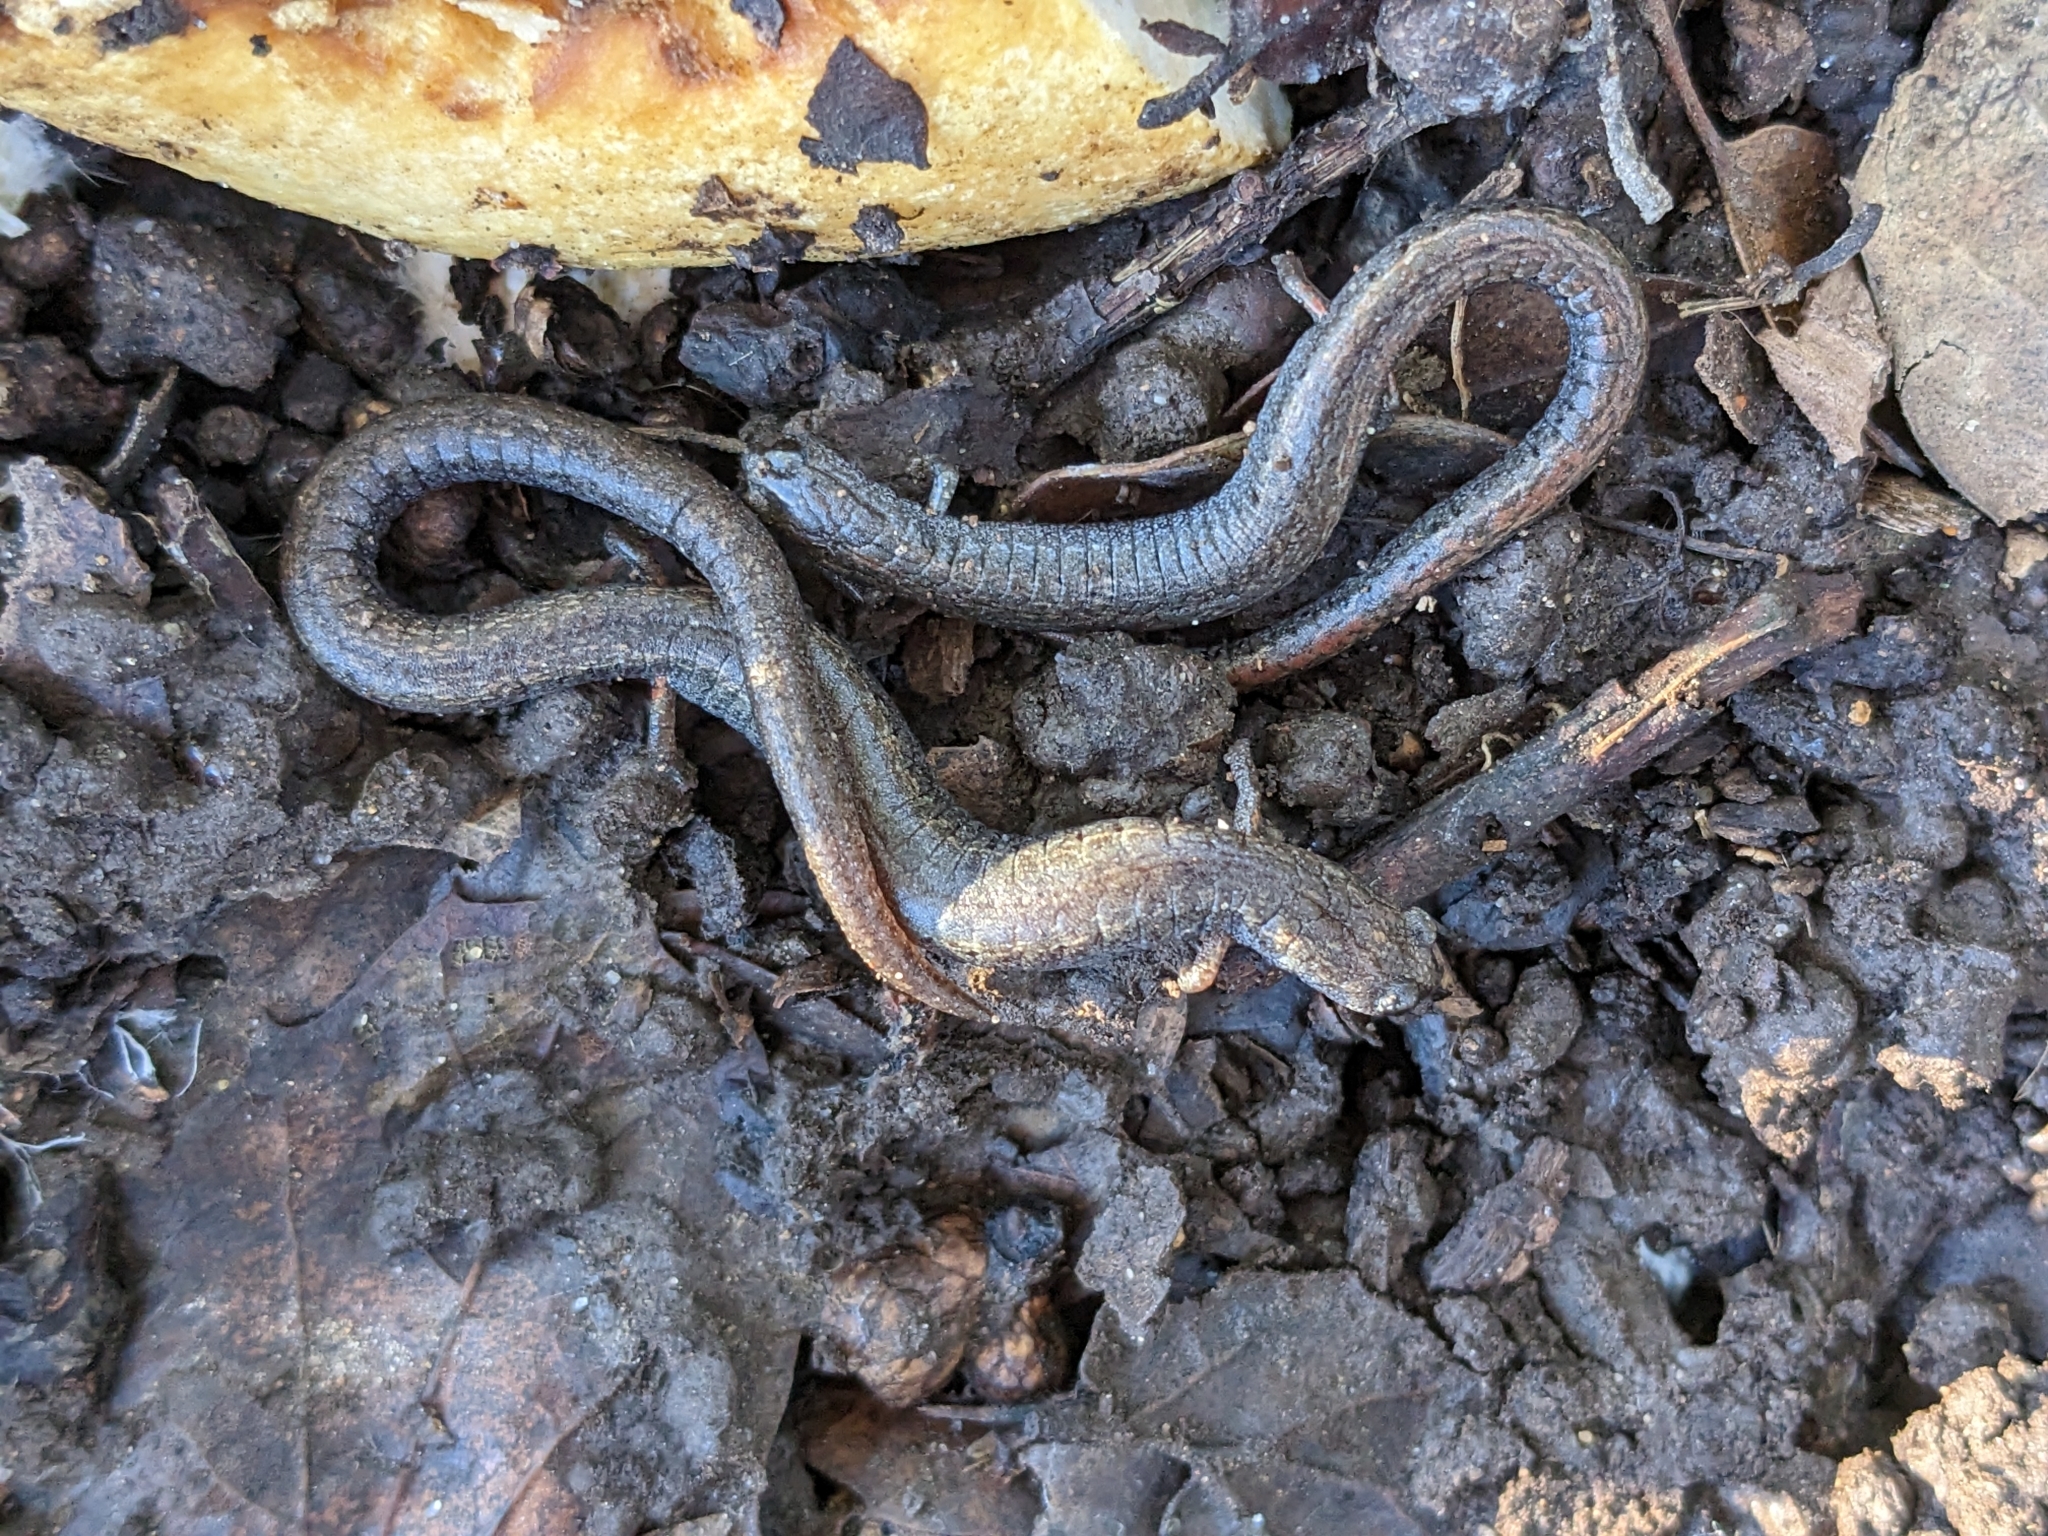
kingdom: Animalia
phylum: Chordata
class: Amphibia
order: Caudata
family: Plethodontidae
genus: Batrachoseps
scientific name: Batrachoseps attenuatus
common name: California slender salamander
